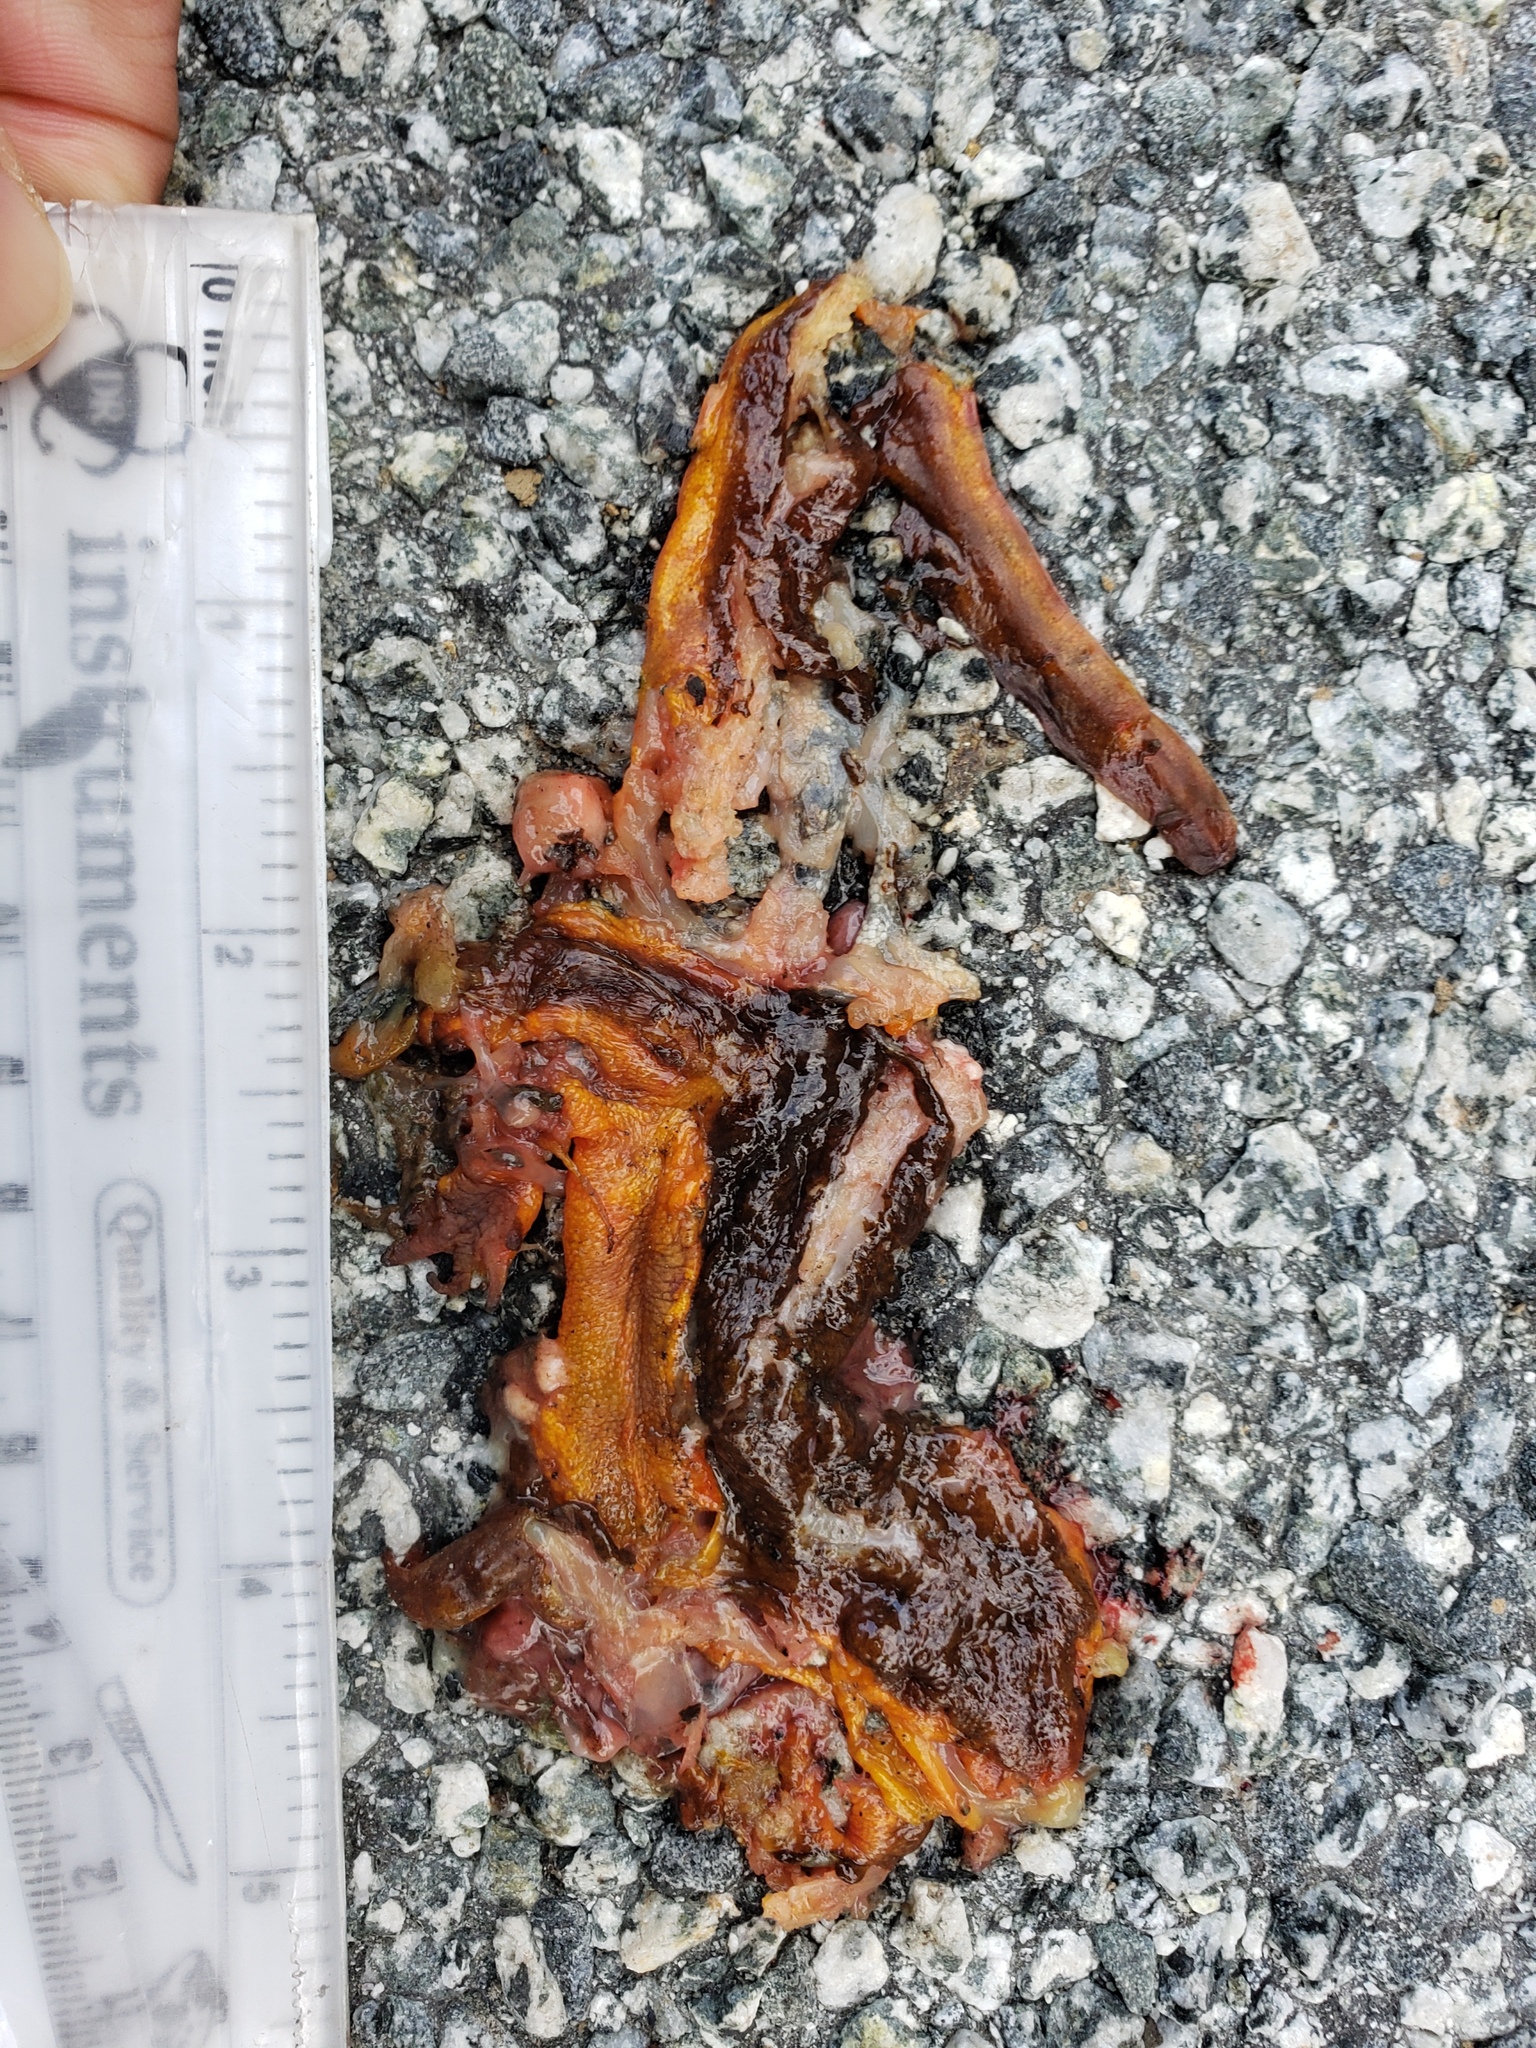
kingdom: Animalia
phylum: Chordata
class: Amphibia
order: Caudata
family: Salamandridae
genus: Taricha
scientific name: Taricha
